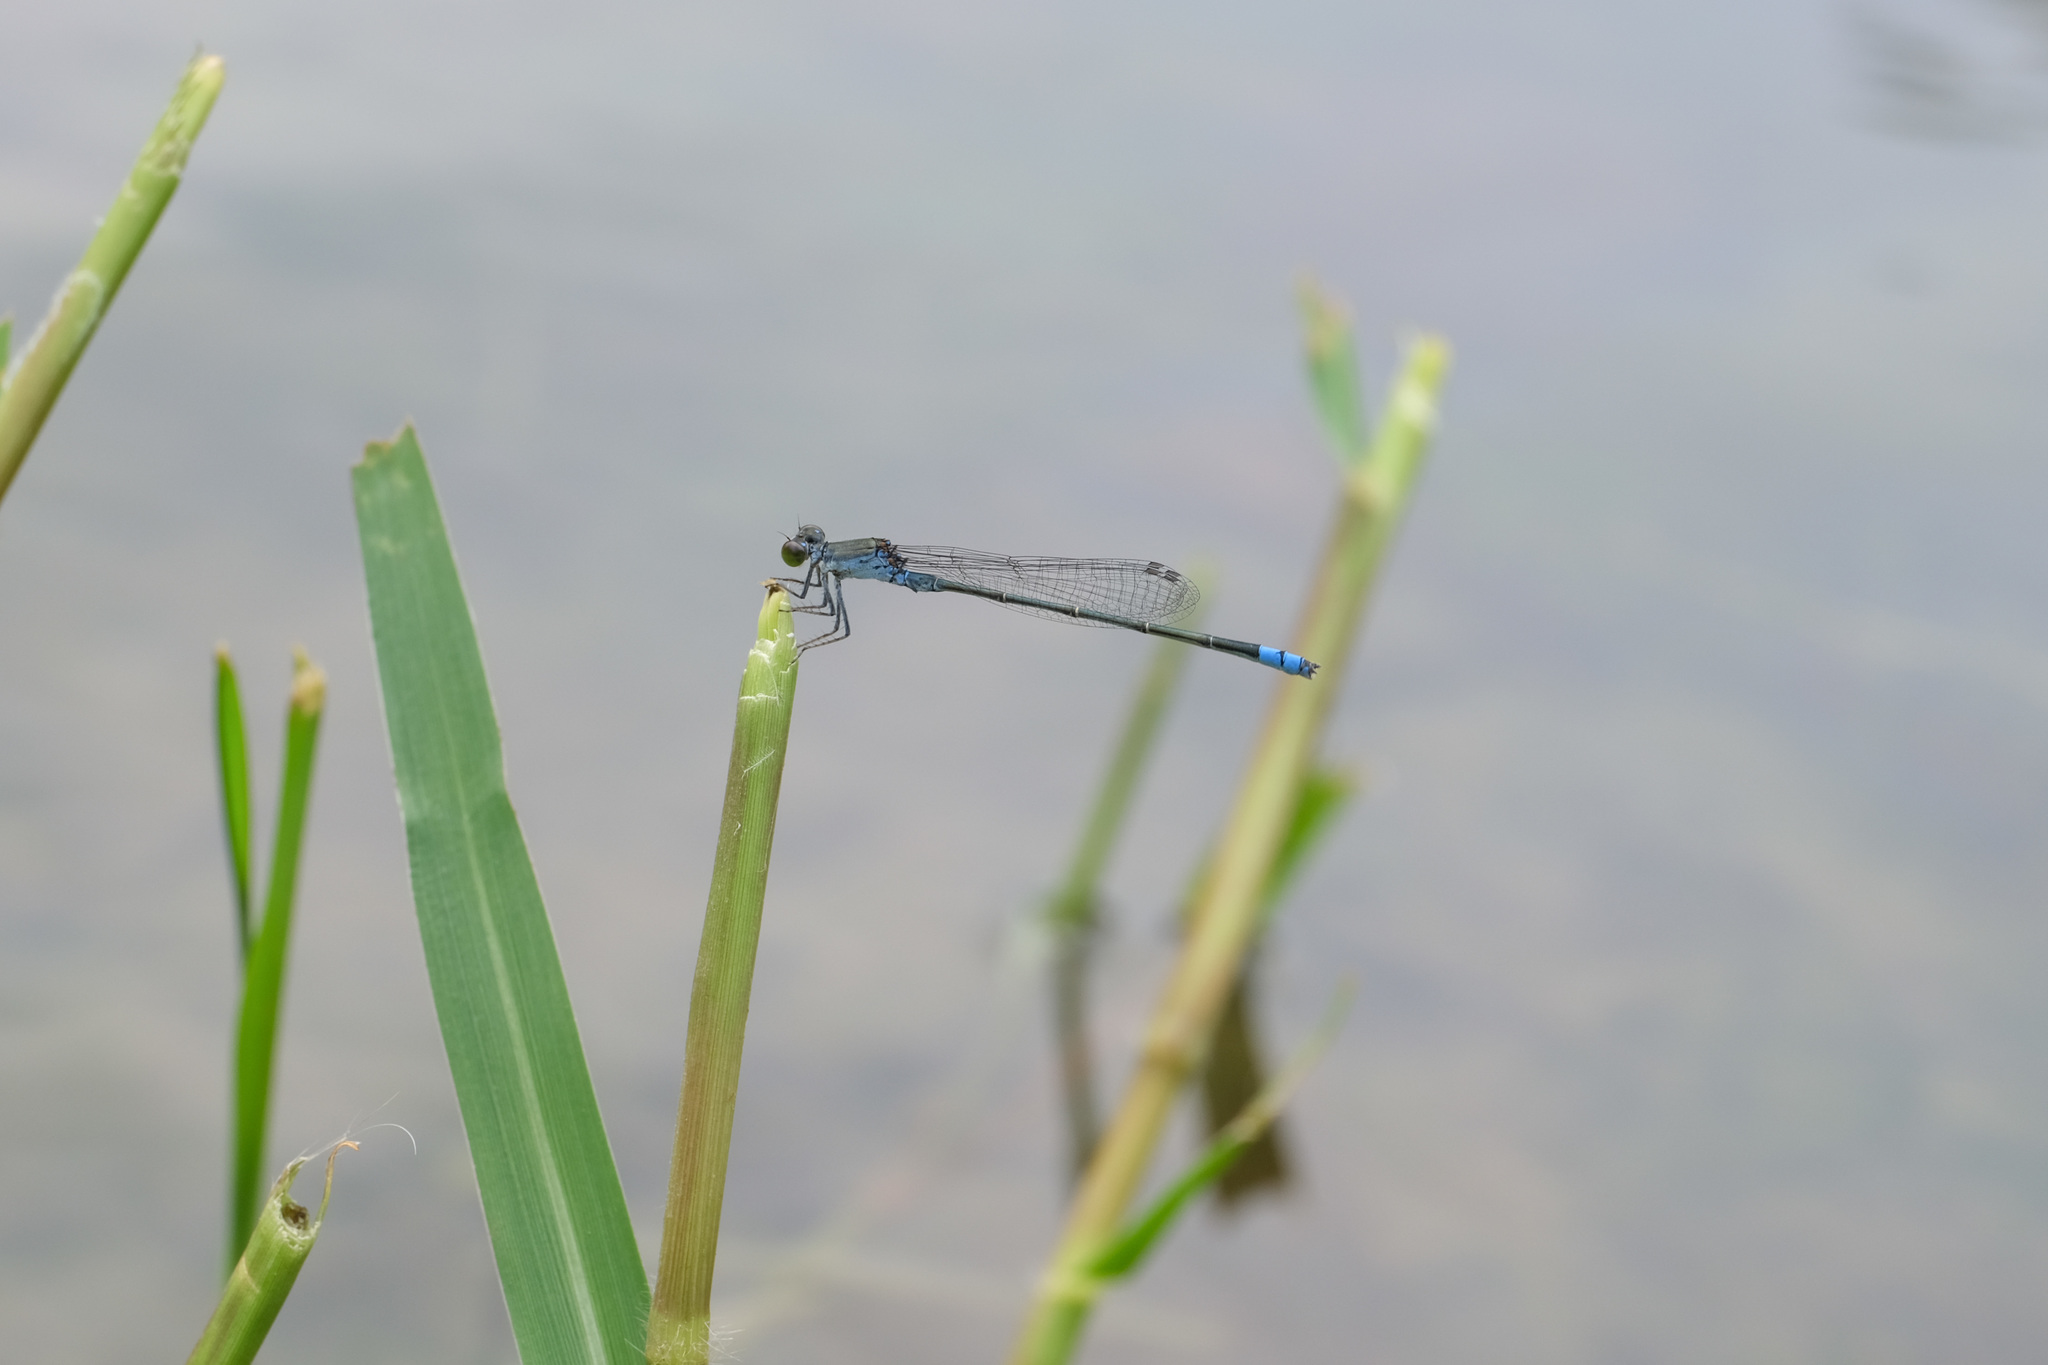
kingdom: Animalia
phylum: Arthropoda
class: Insecta
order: Odonata
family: Coenagrionidae
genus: Paracercion
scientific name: Paracercion calamorum
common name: Dusky lilysquatter
